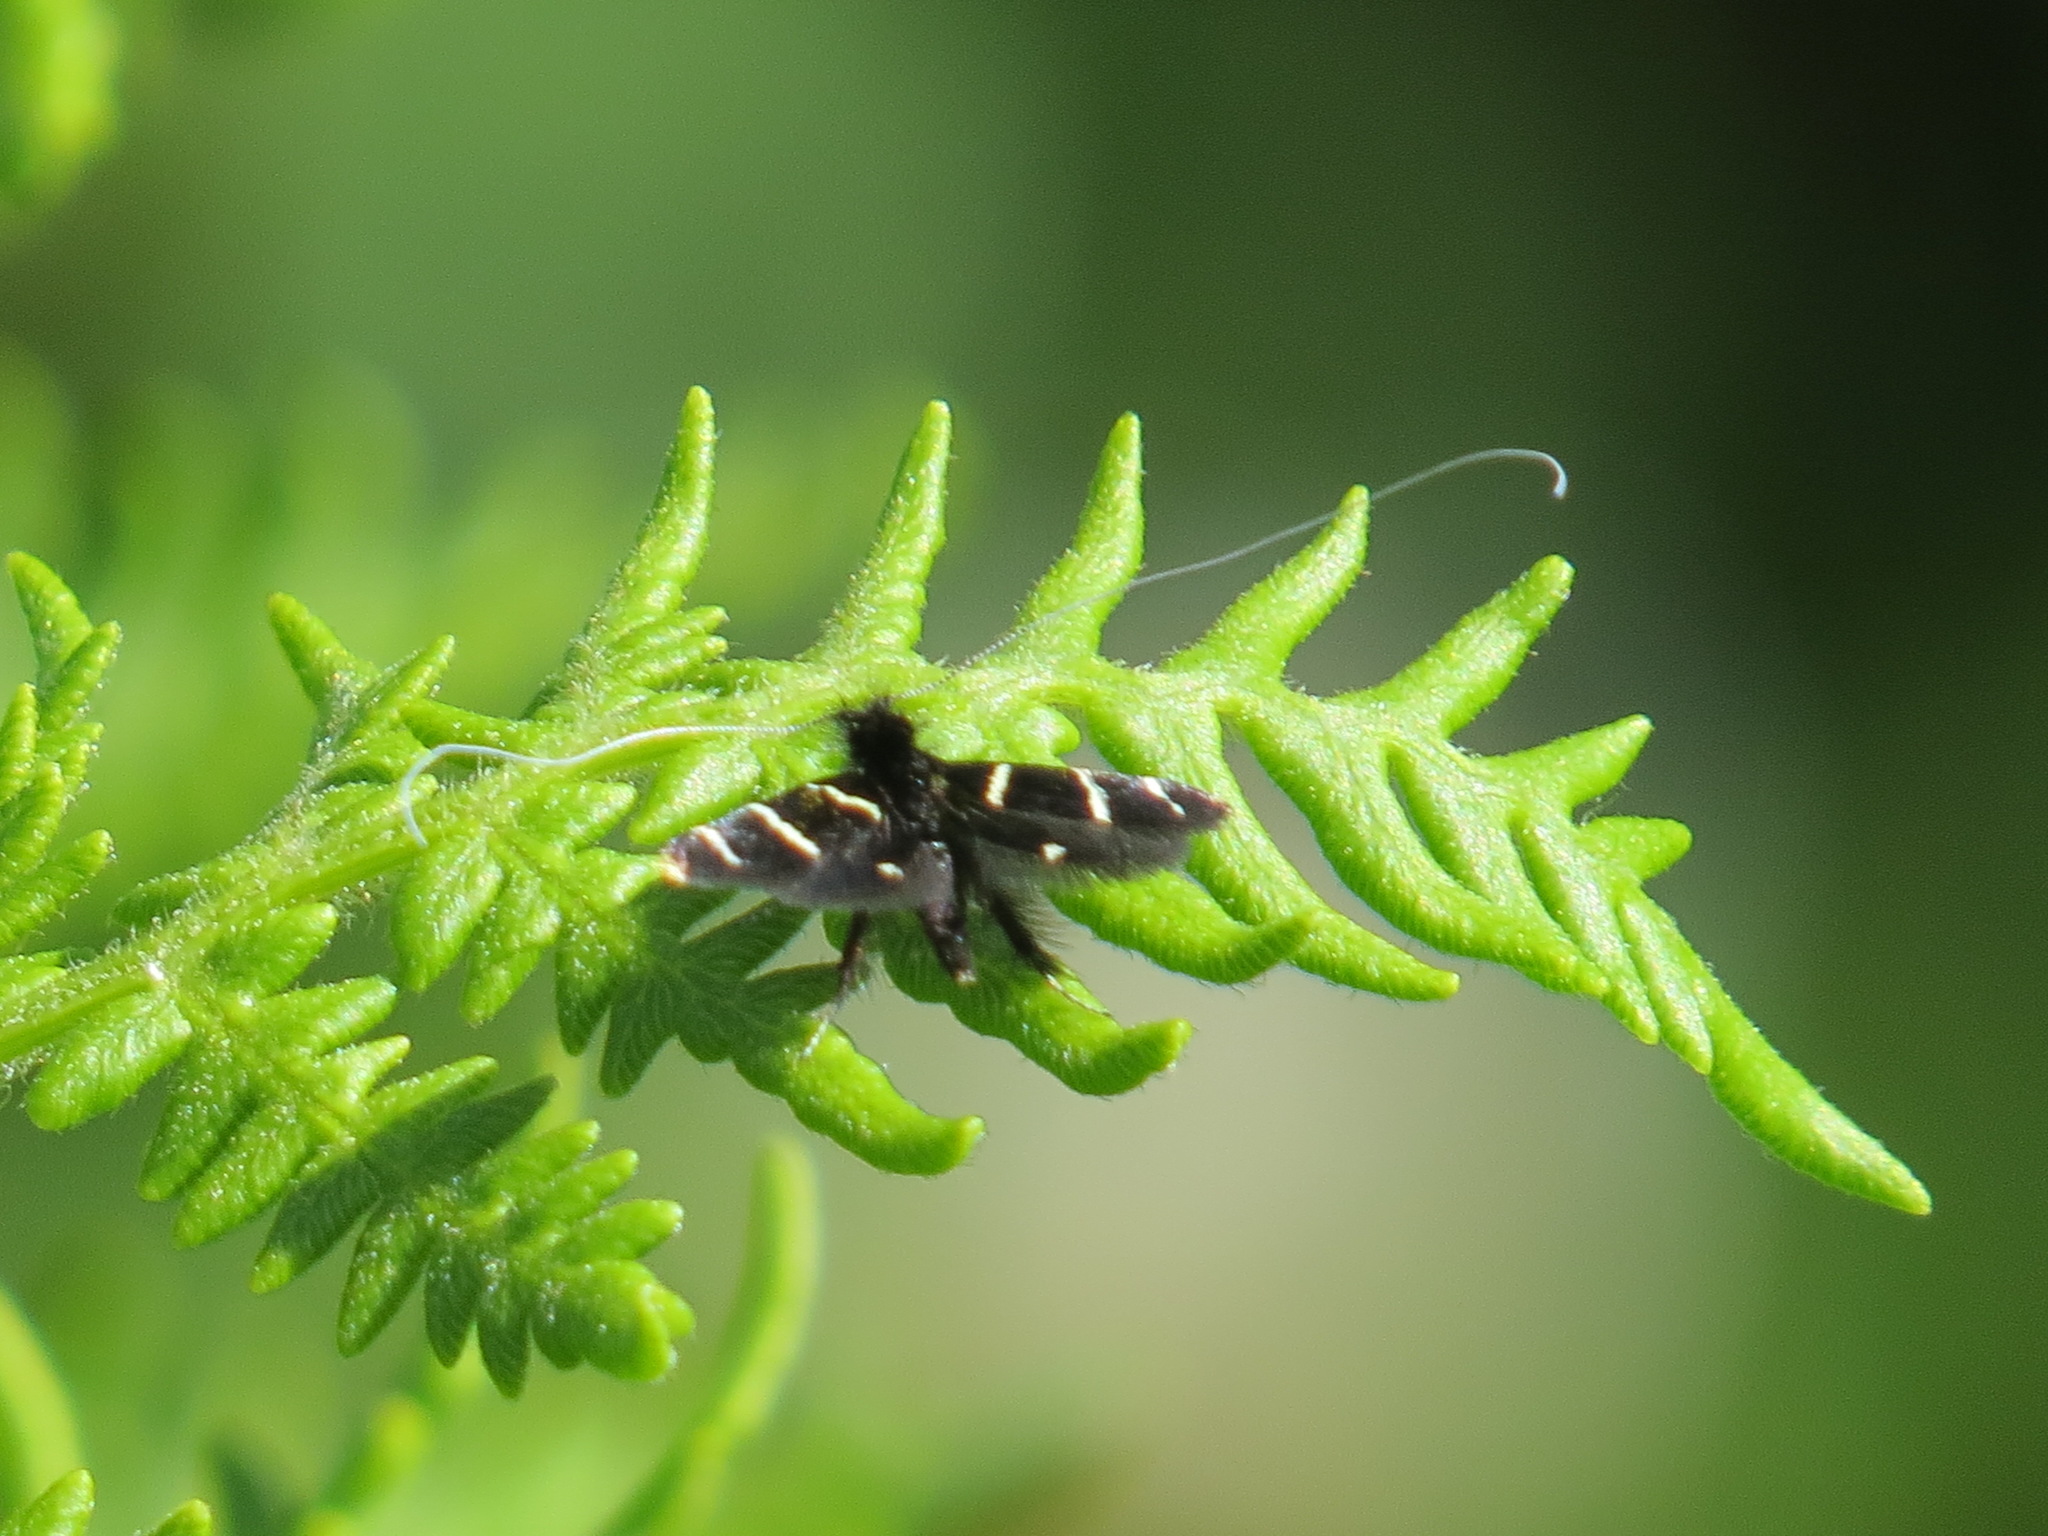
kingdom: Animalia
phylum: Arthropoda
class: Insecta
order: Lepidoptera
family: Adelidae
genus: Adela
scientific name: Adela trigrapha
